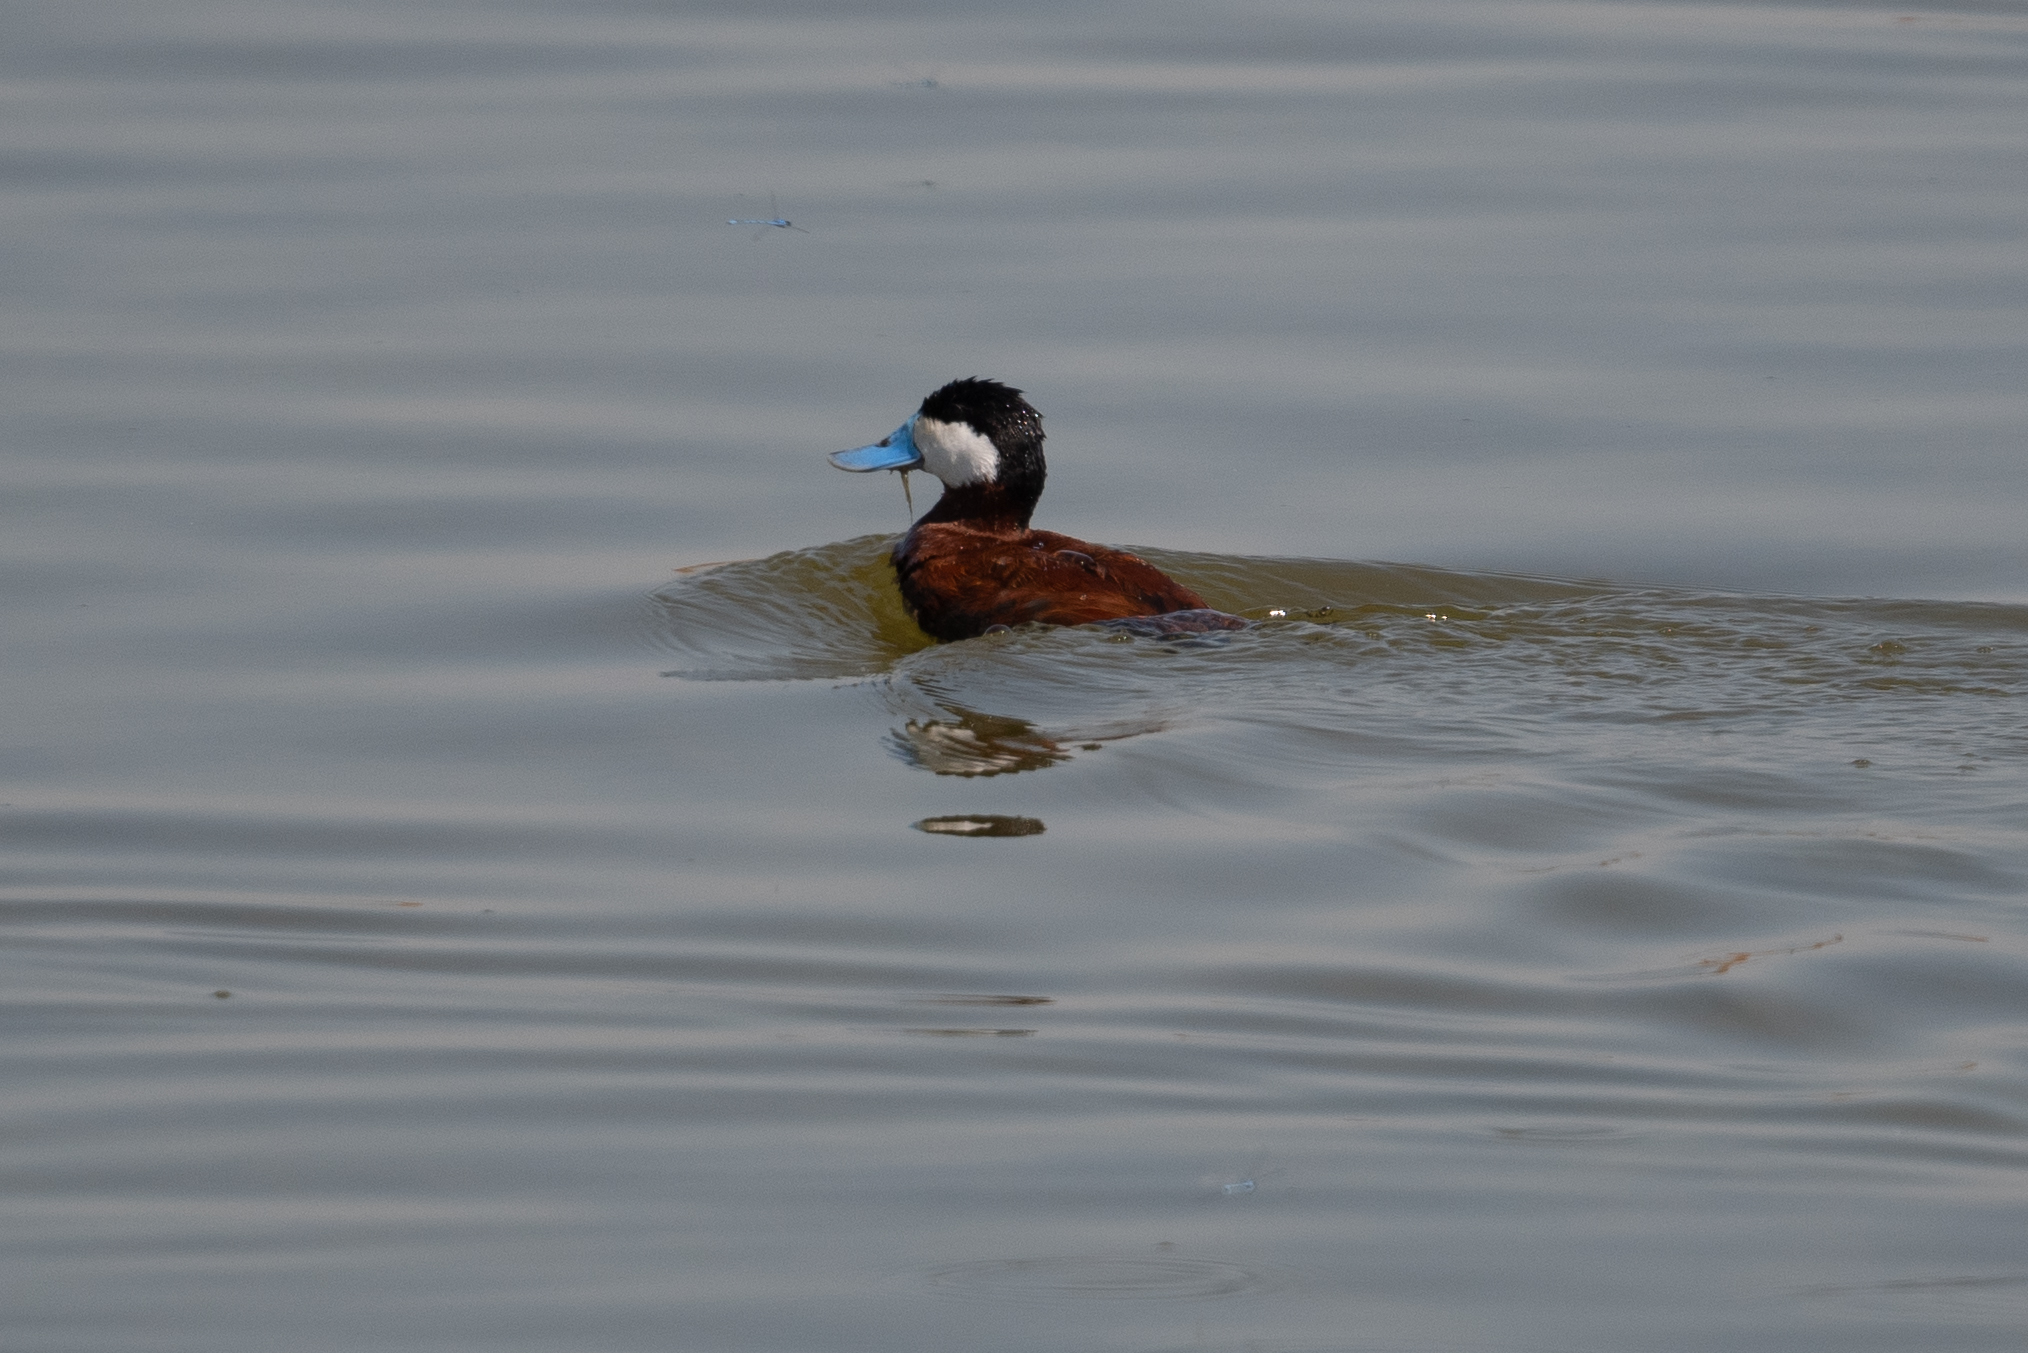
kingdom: Animalia
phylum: Chordata
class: Aves
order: Anseriformes
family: Anatidae
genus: Oxyura
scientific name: Oxyura jamaicensis
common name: Ruddy duck
